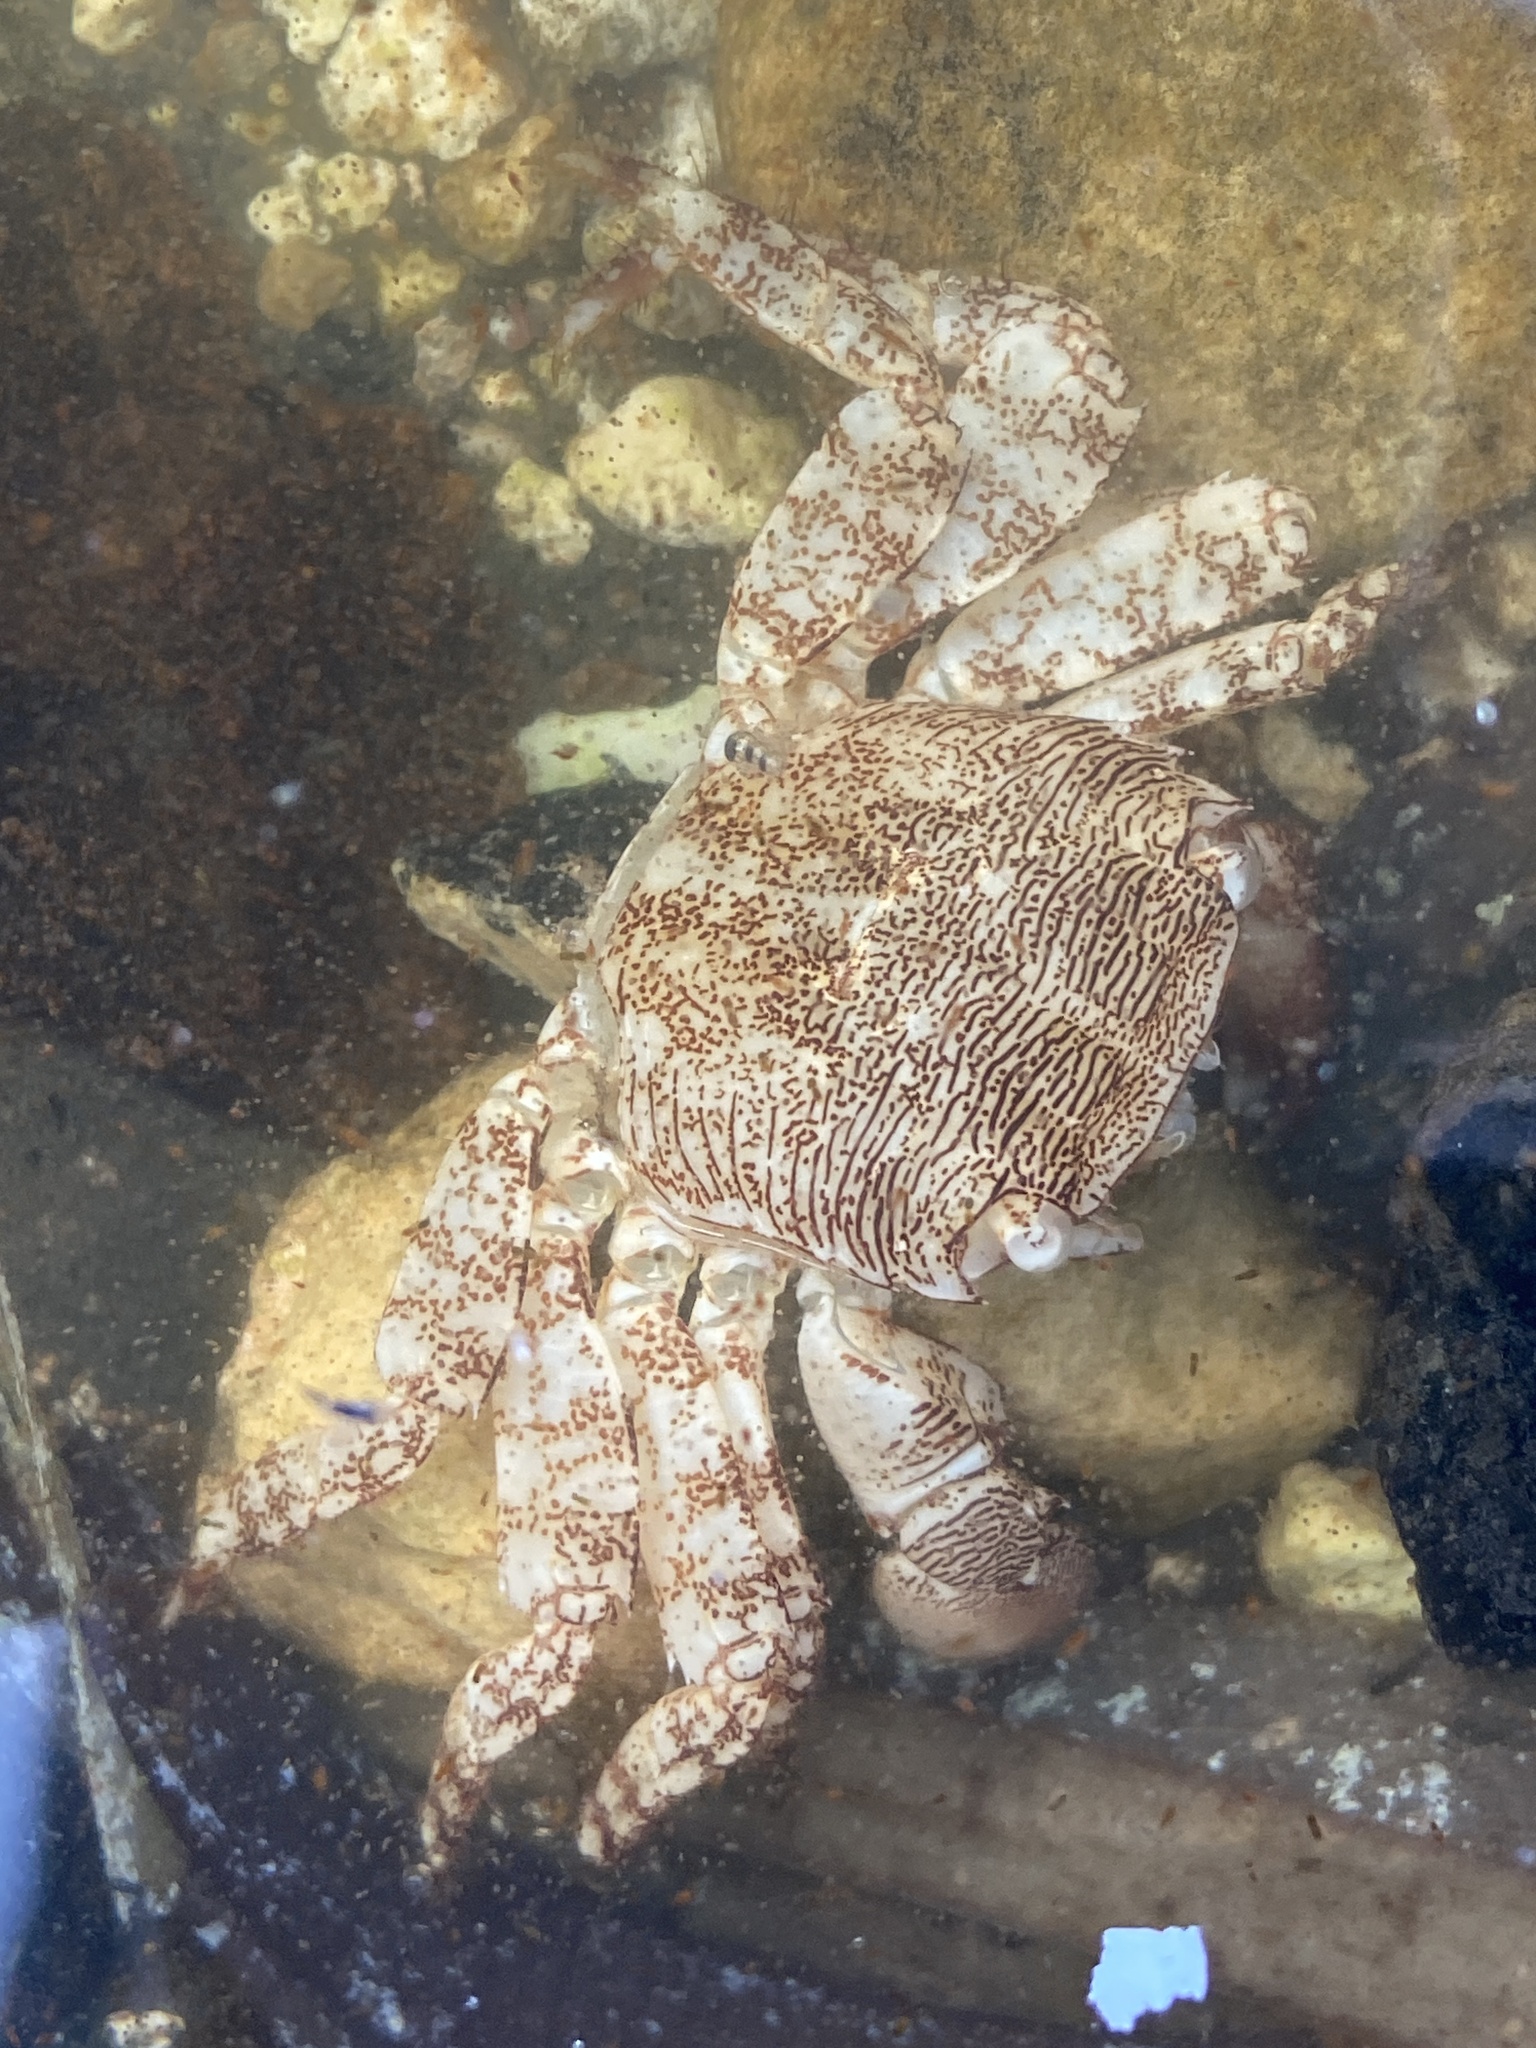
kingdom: Animalia
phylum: Arthropoda
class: Malacostraca
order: Decapoda
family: Grapsidae
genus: Pachygrapsus
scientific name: Pachygrapsus marmoratus
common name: Marbled rock crab
